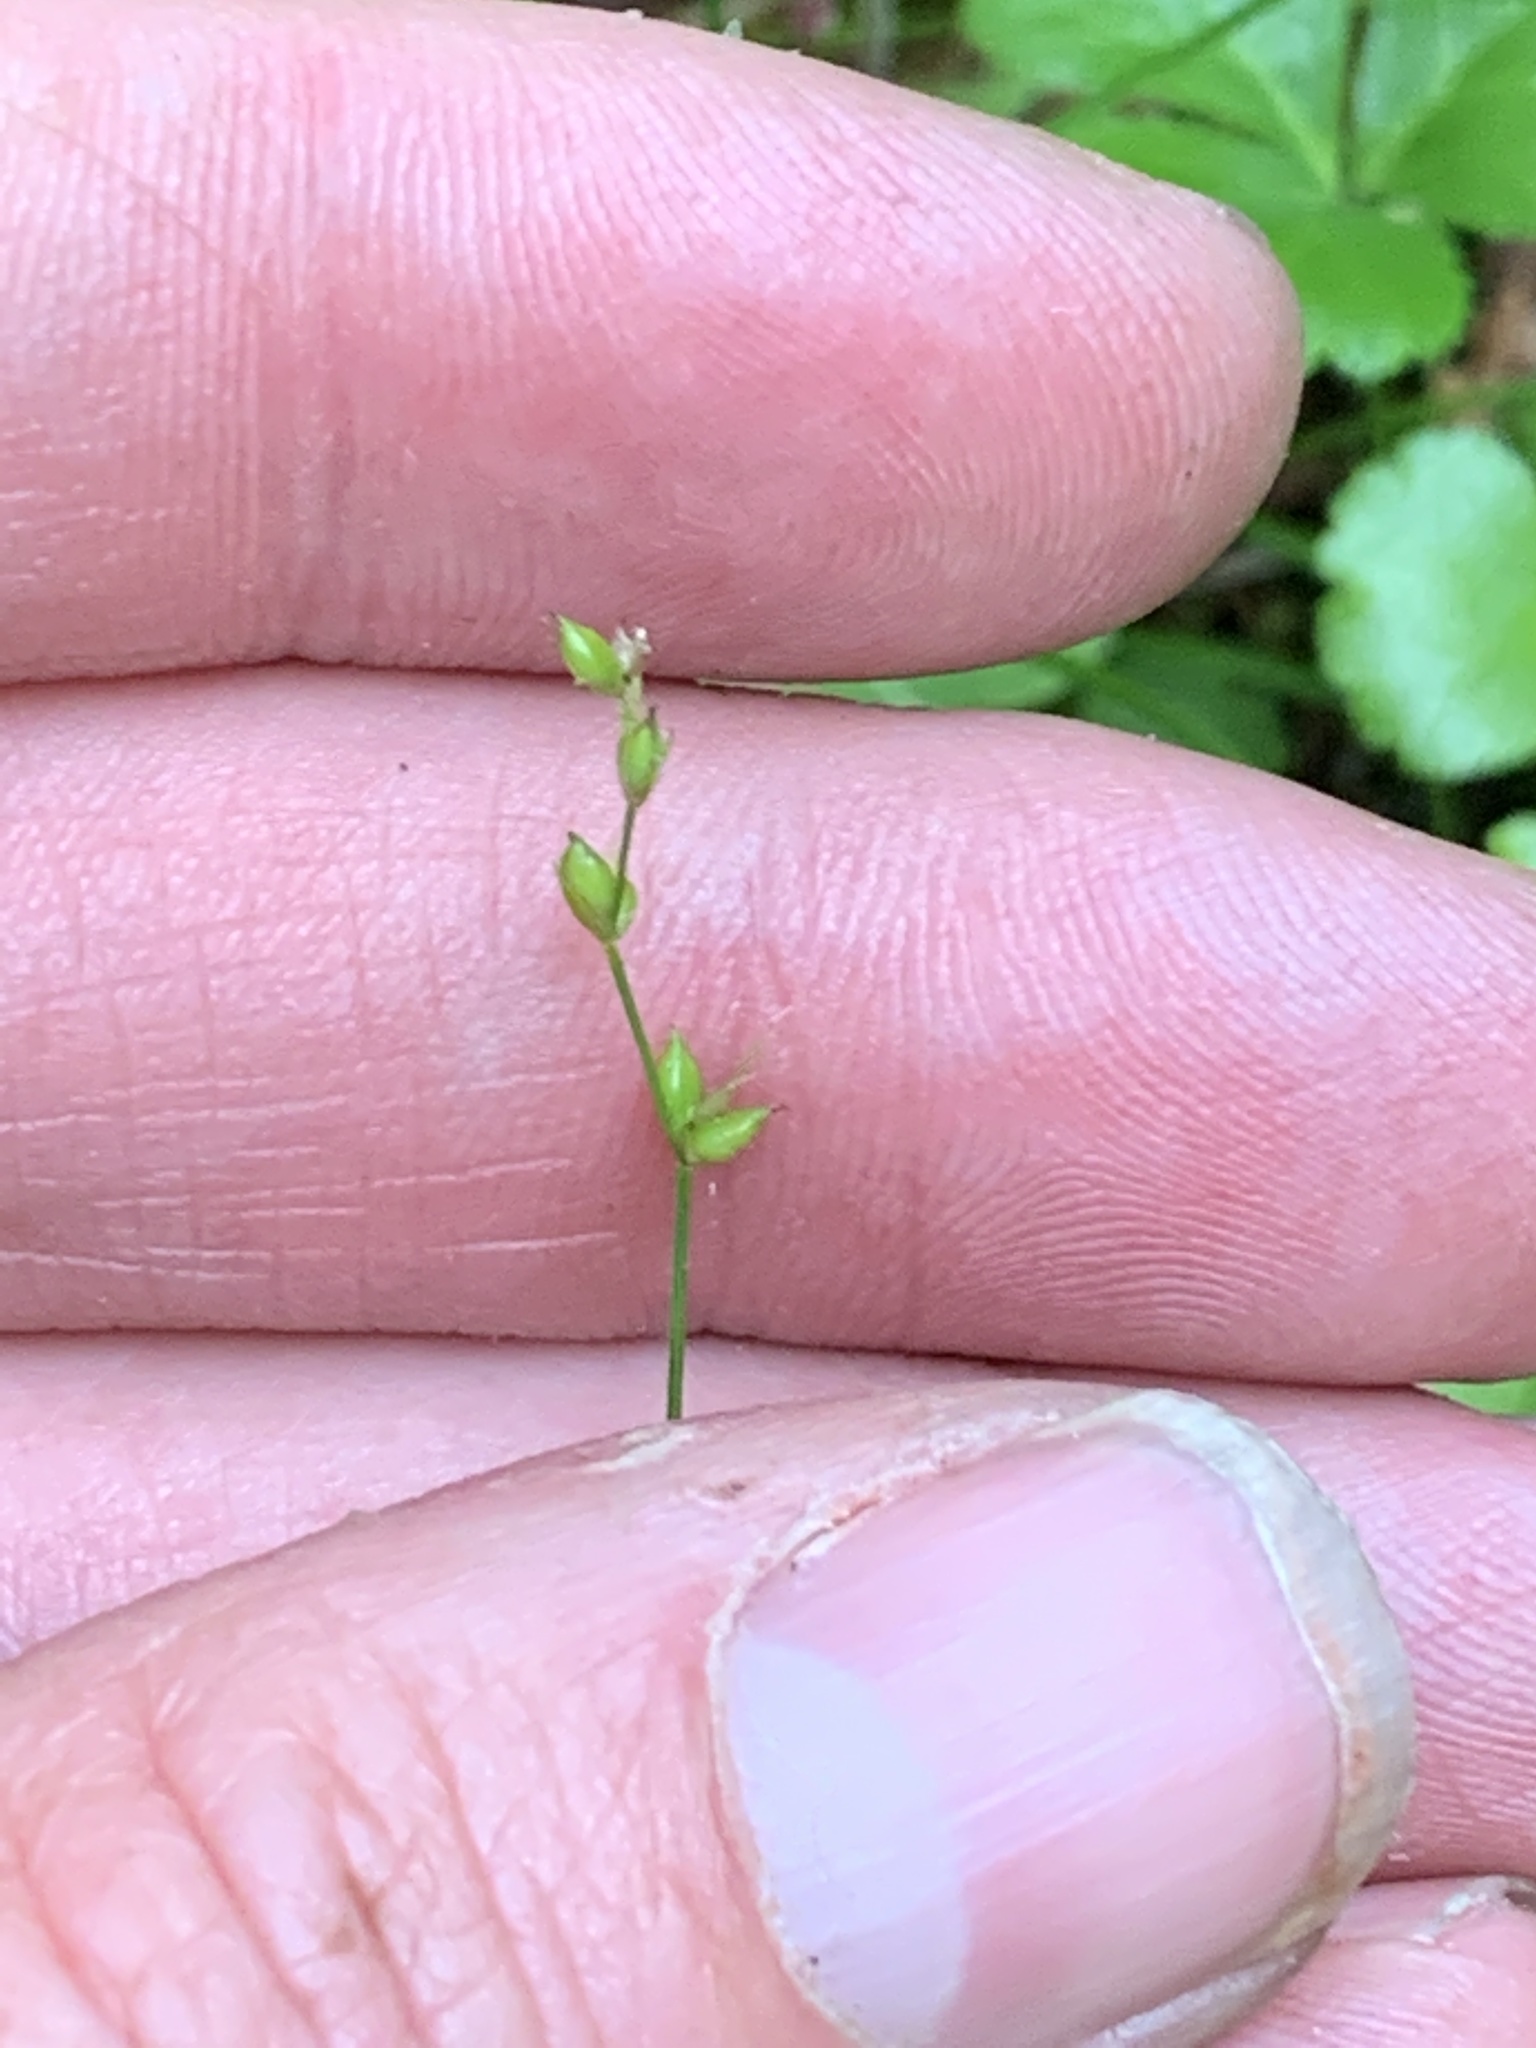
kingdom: Plantae
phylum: Tracheophyta
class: Liliopsida
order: Poales
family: Cyperaceae
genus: Carex
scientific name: Carex disperma
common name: Short-leaved sedge
